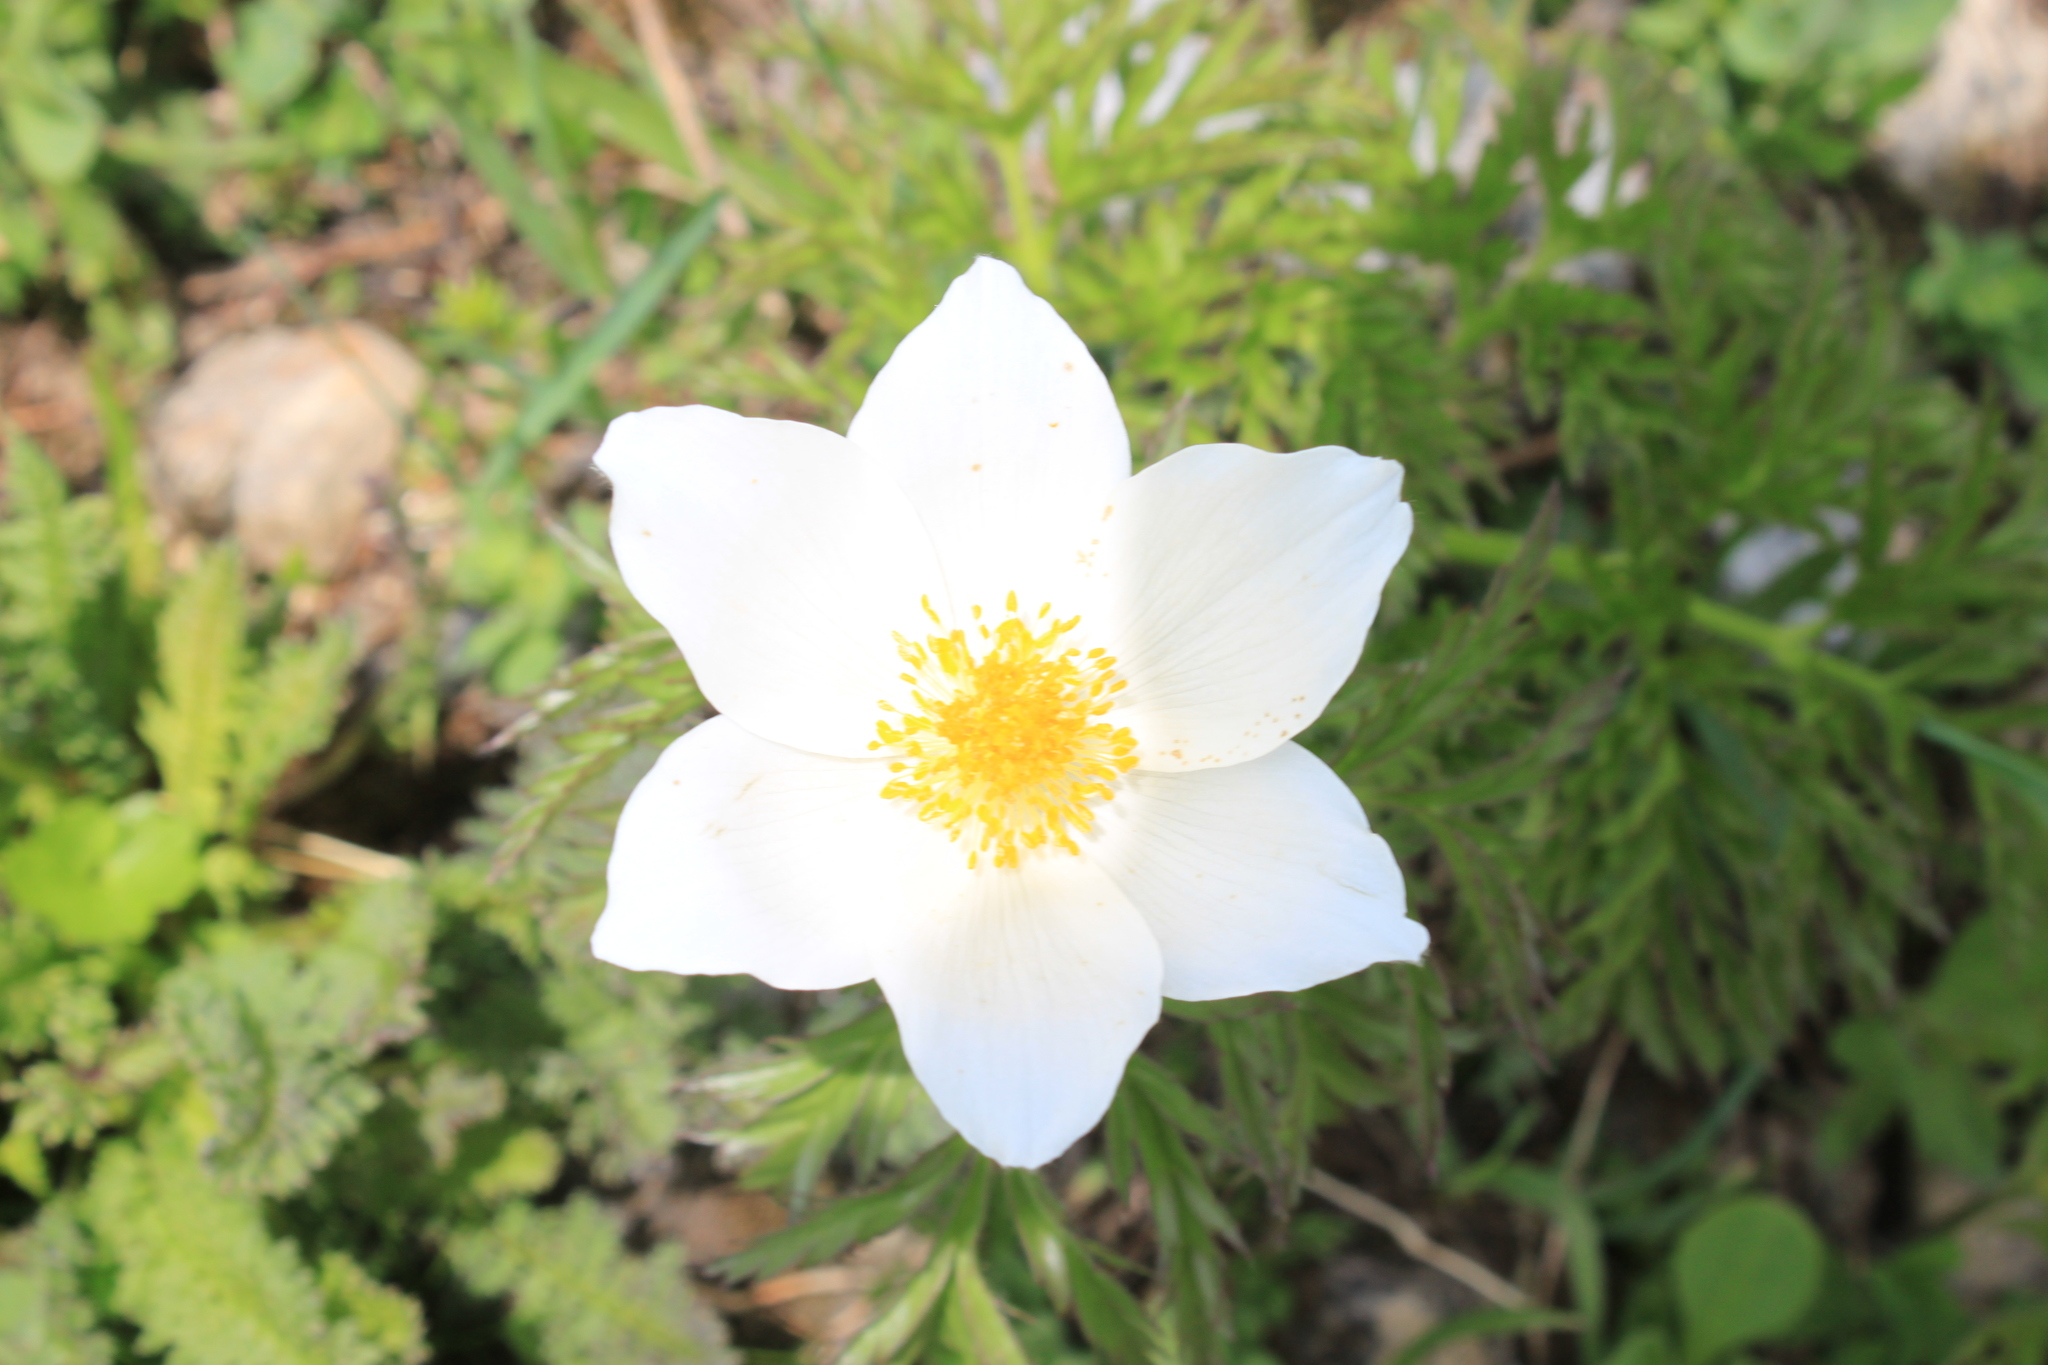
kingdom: Plantae
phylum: Tracheophyta
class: Magnoliopsida
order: Ranunculales
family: Ranunculaceae
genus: Pulsatilla
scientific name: Pulsatilla alpina
